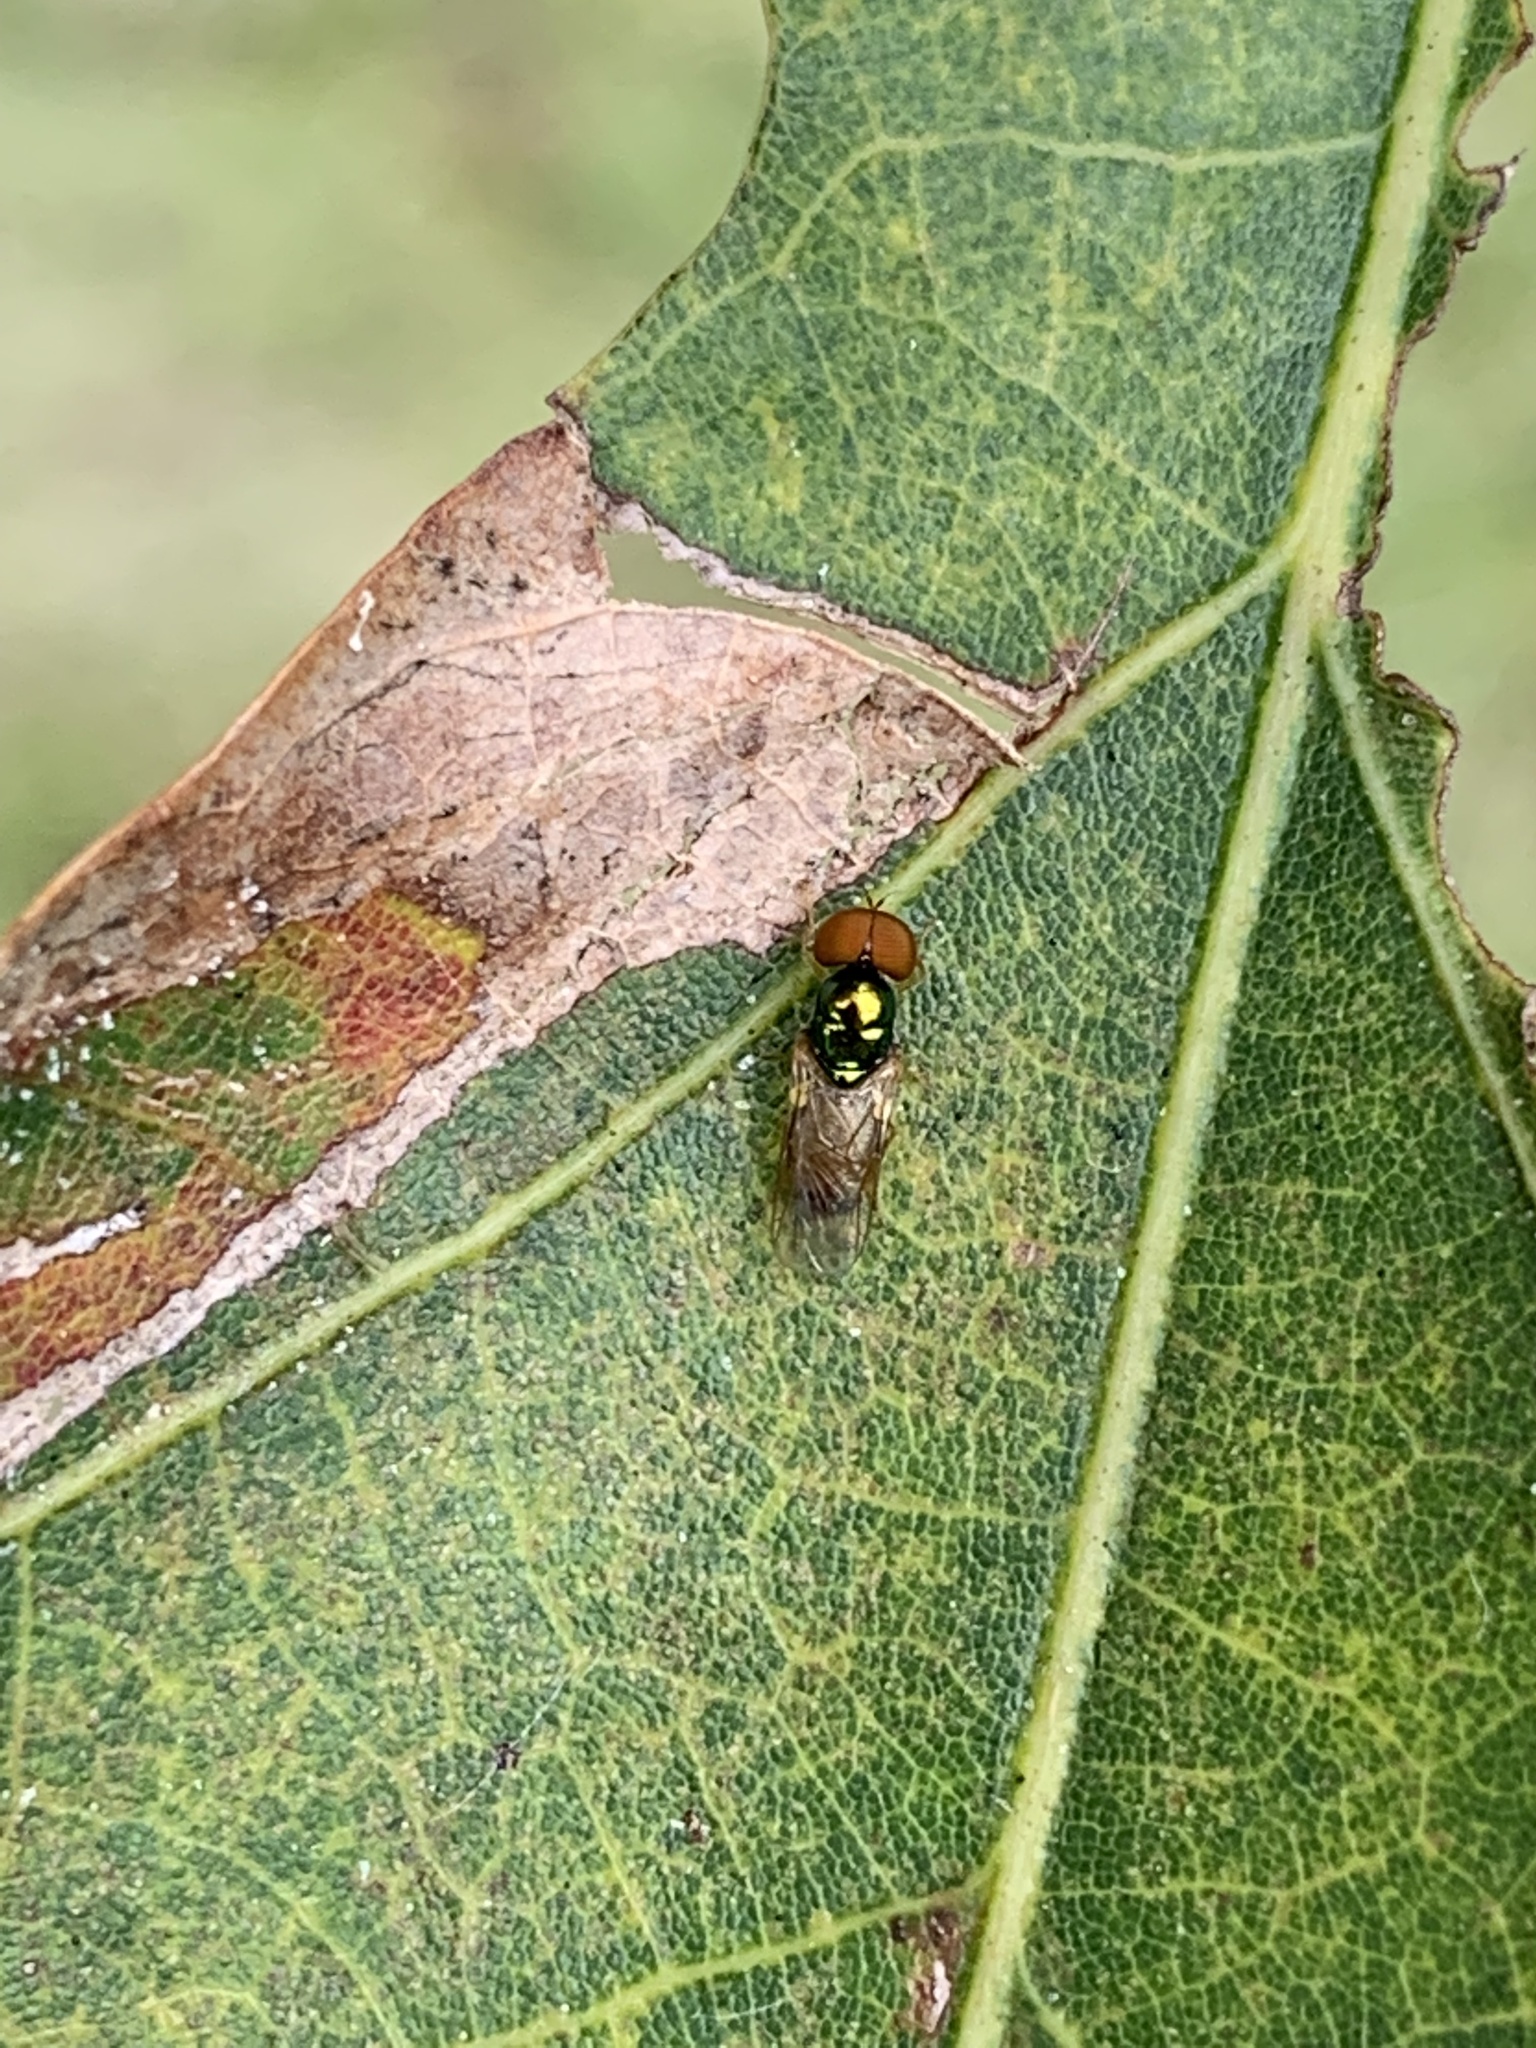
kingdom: Animalia
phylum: Arthropoda
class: Insecta
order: Diptera
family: Stratiomyidae
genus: Microchrysa
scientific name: Microchrysa flaviventris
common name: Soldier fly
